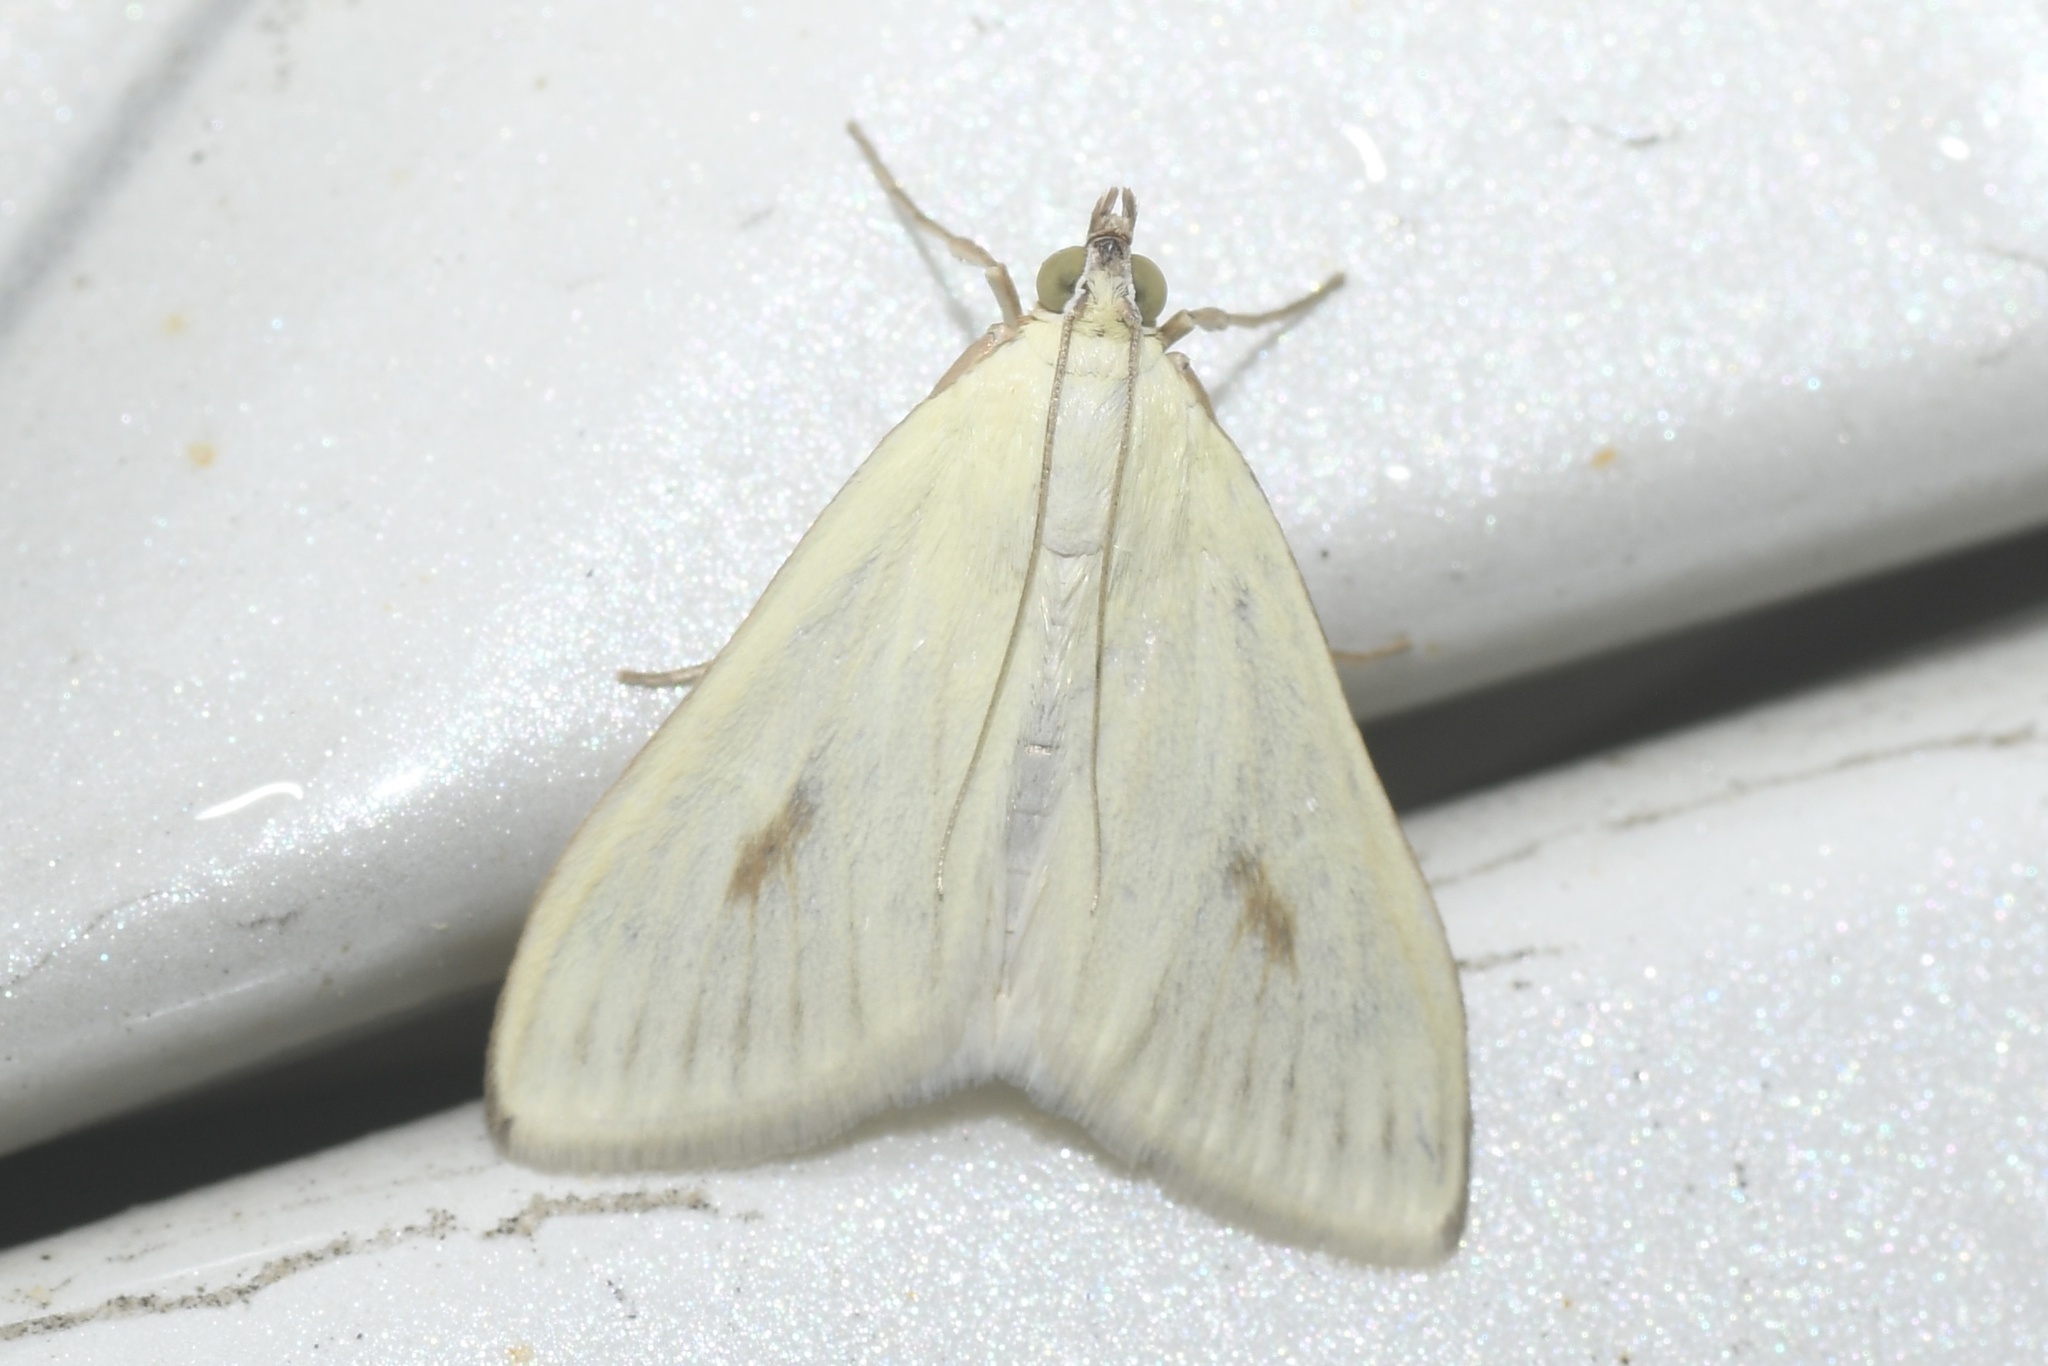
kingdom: Animalia
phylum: Arthropoda
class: Insecta
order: Lepidoptera
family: Crambidae
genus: Sitochroa
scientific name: Sitochroa palealis
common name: Greenish-yellow sitochroa moth
